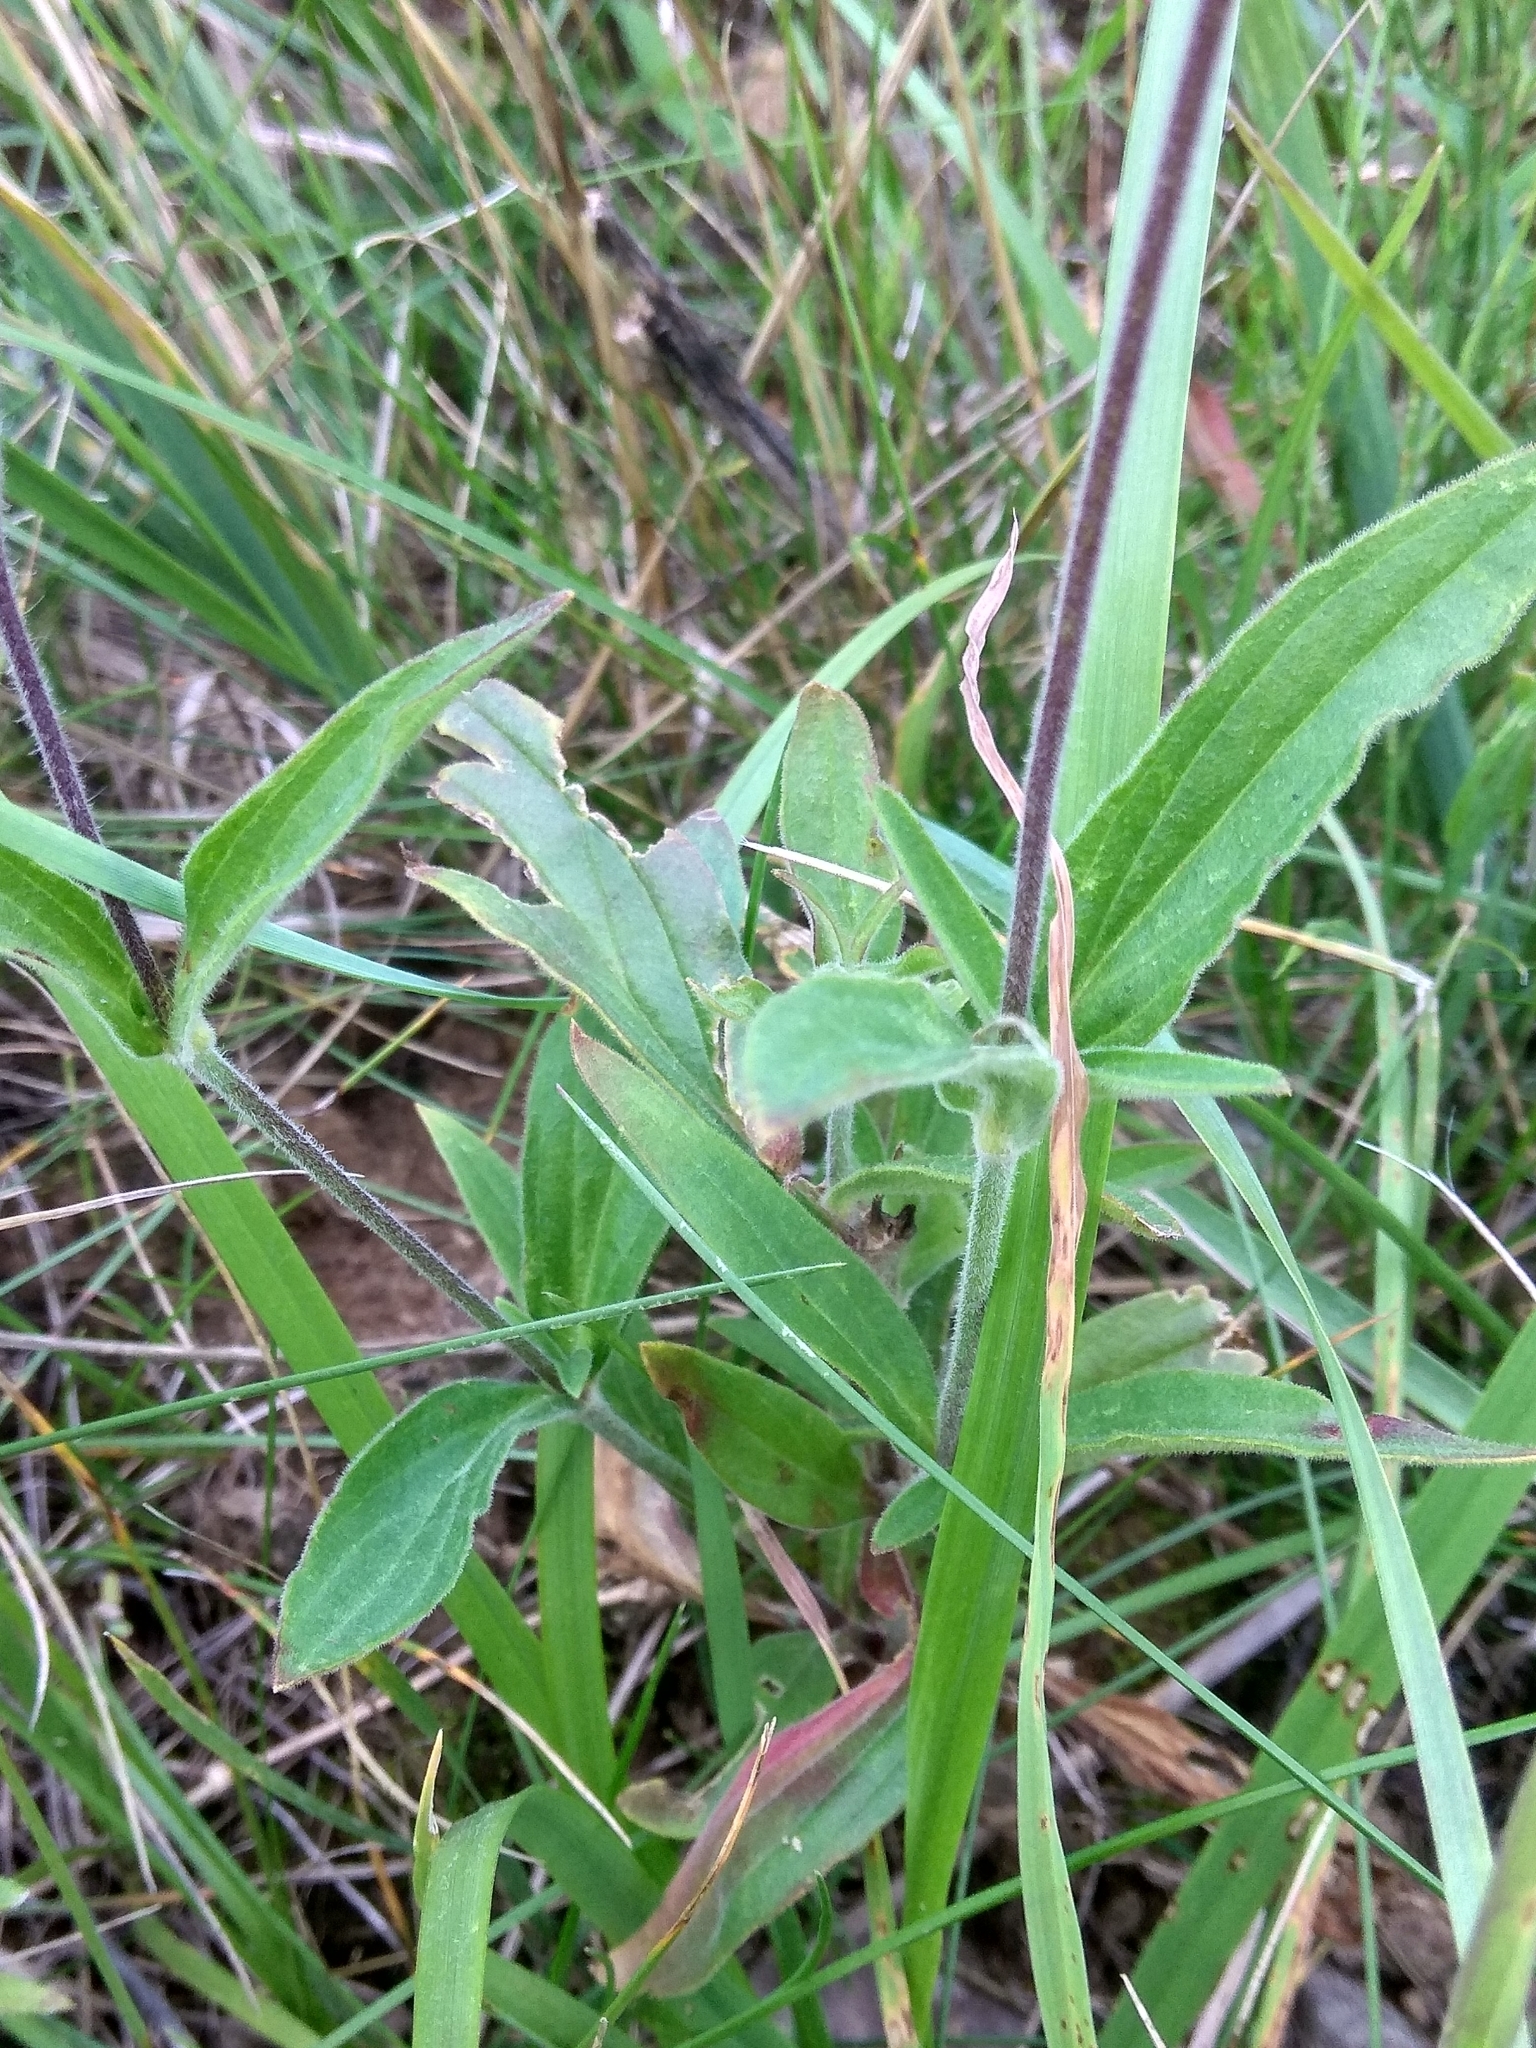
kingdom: Plantae
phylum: Tracheophyta
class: Magnoliopsida
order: Caryophyllales
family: Caryophyllaceae
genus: Silene
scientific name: Silene latifolia
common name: White campion
